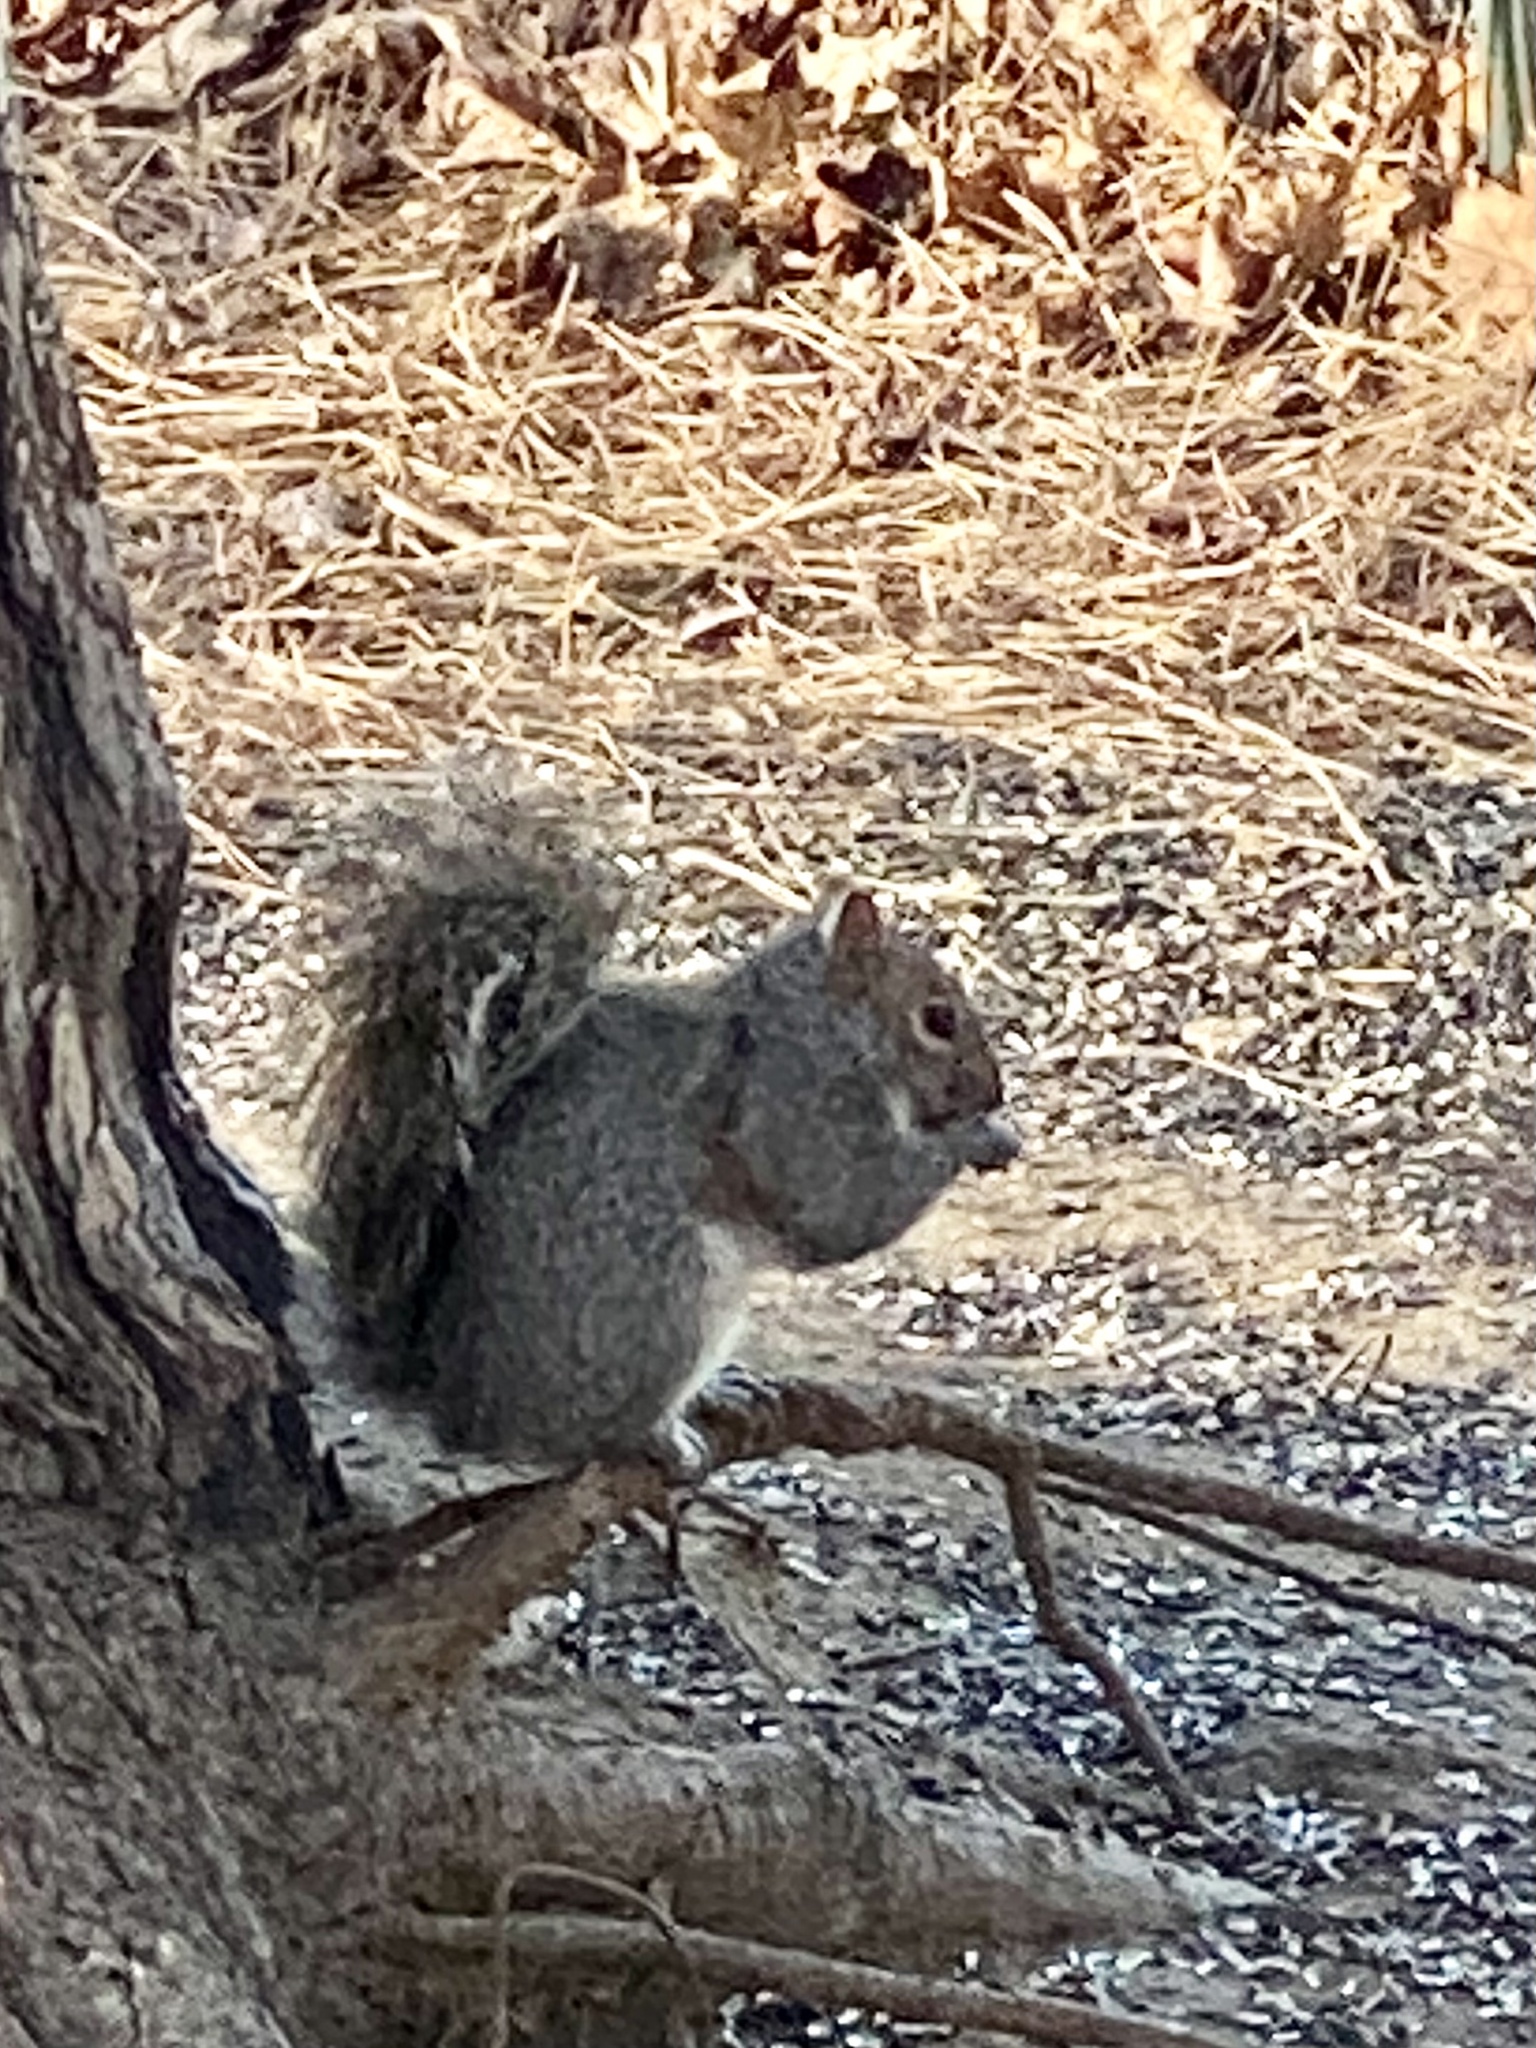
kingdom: Animalia
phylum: Chordata
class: Mammalia
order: Rodentia
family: Sciuridae
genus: Sciurus
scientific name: Sciurus carolinensis
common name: Eastern gray squirrel
